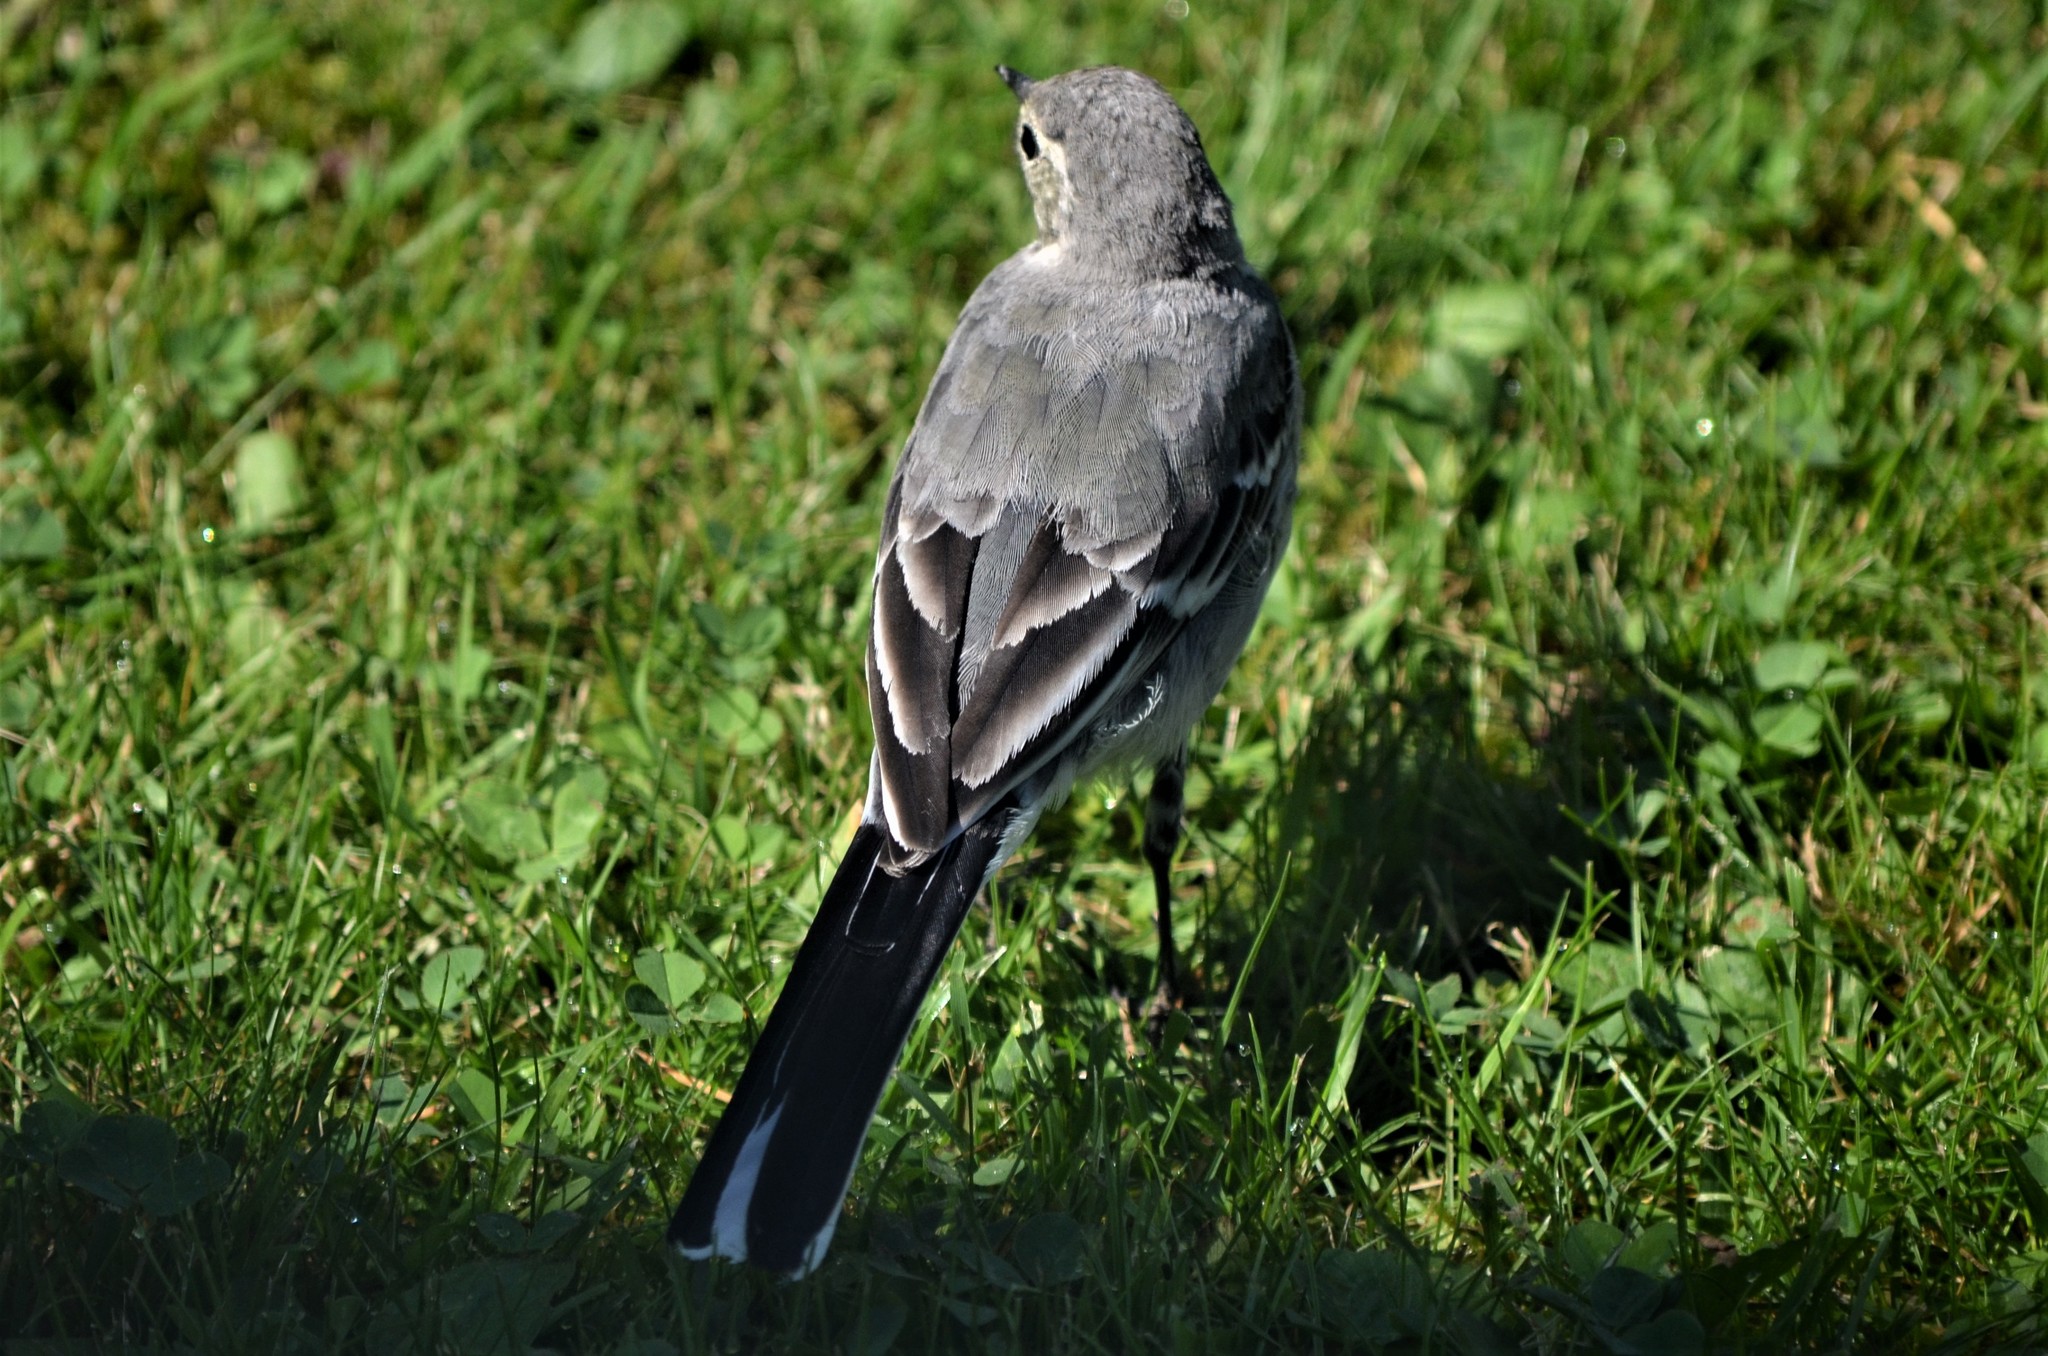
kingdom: Animalia
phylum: Chordata
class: Aves
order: Passeriformes
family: Motacillidae
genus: Motacilla
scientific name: Motacilla alba
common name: White wagtail
